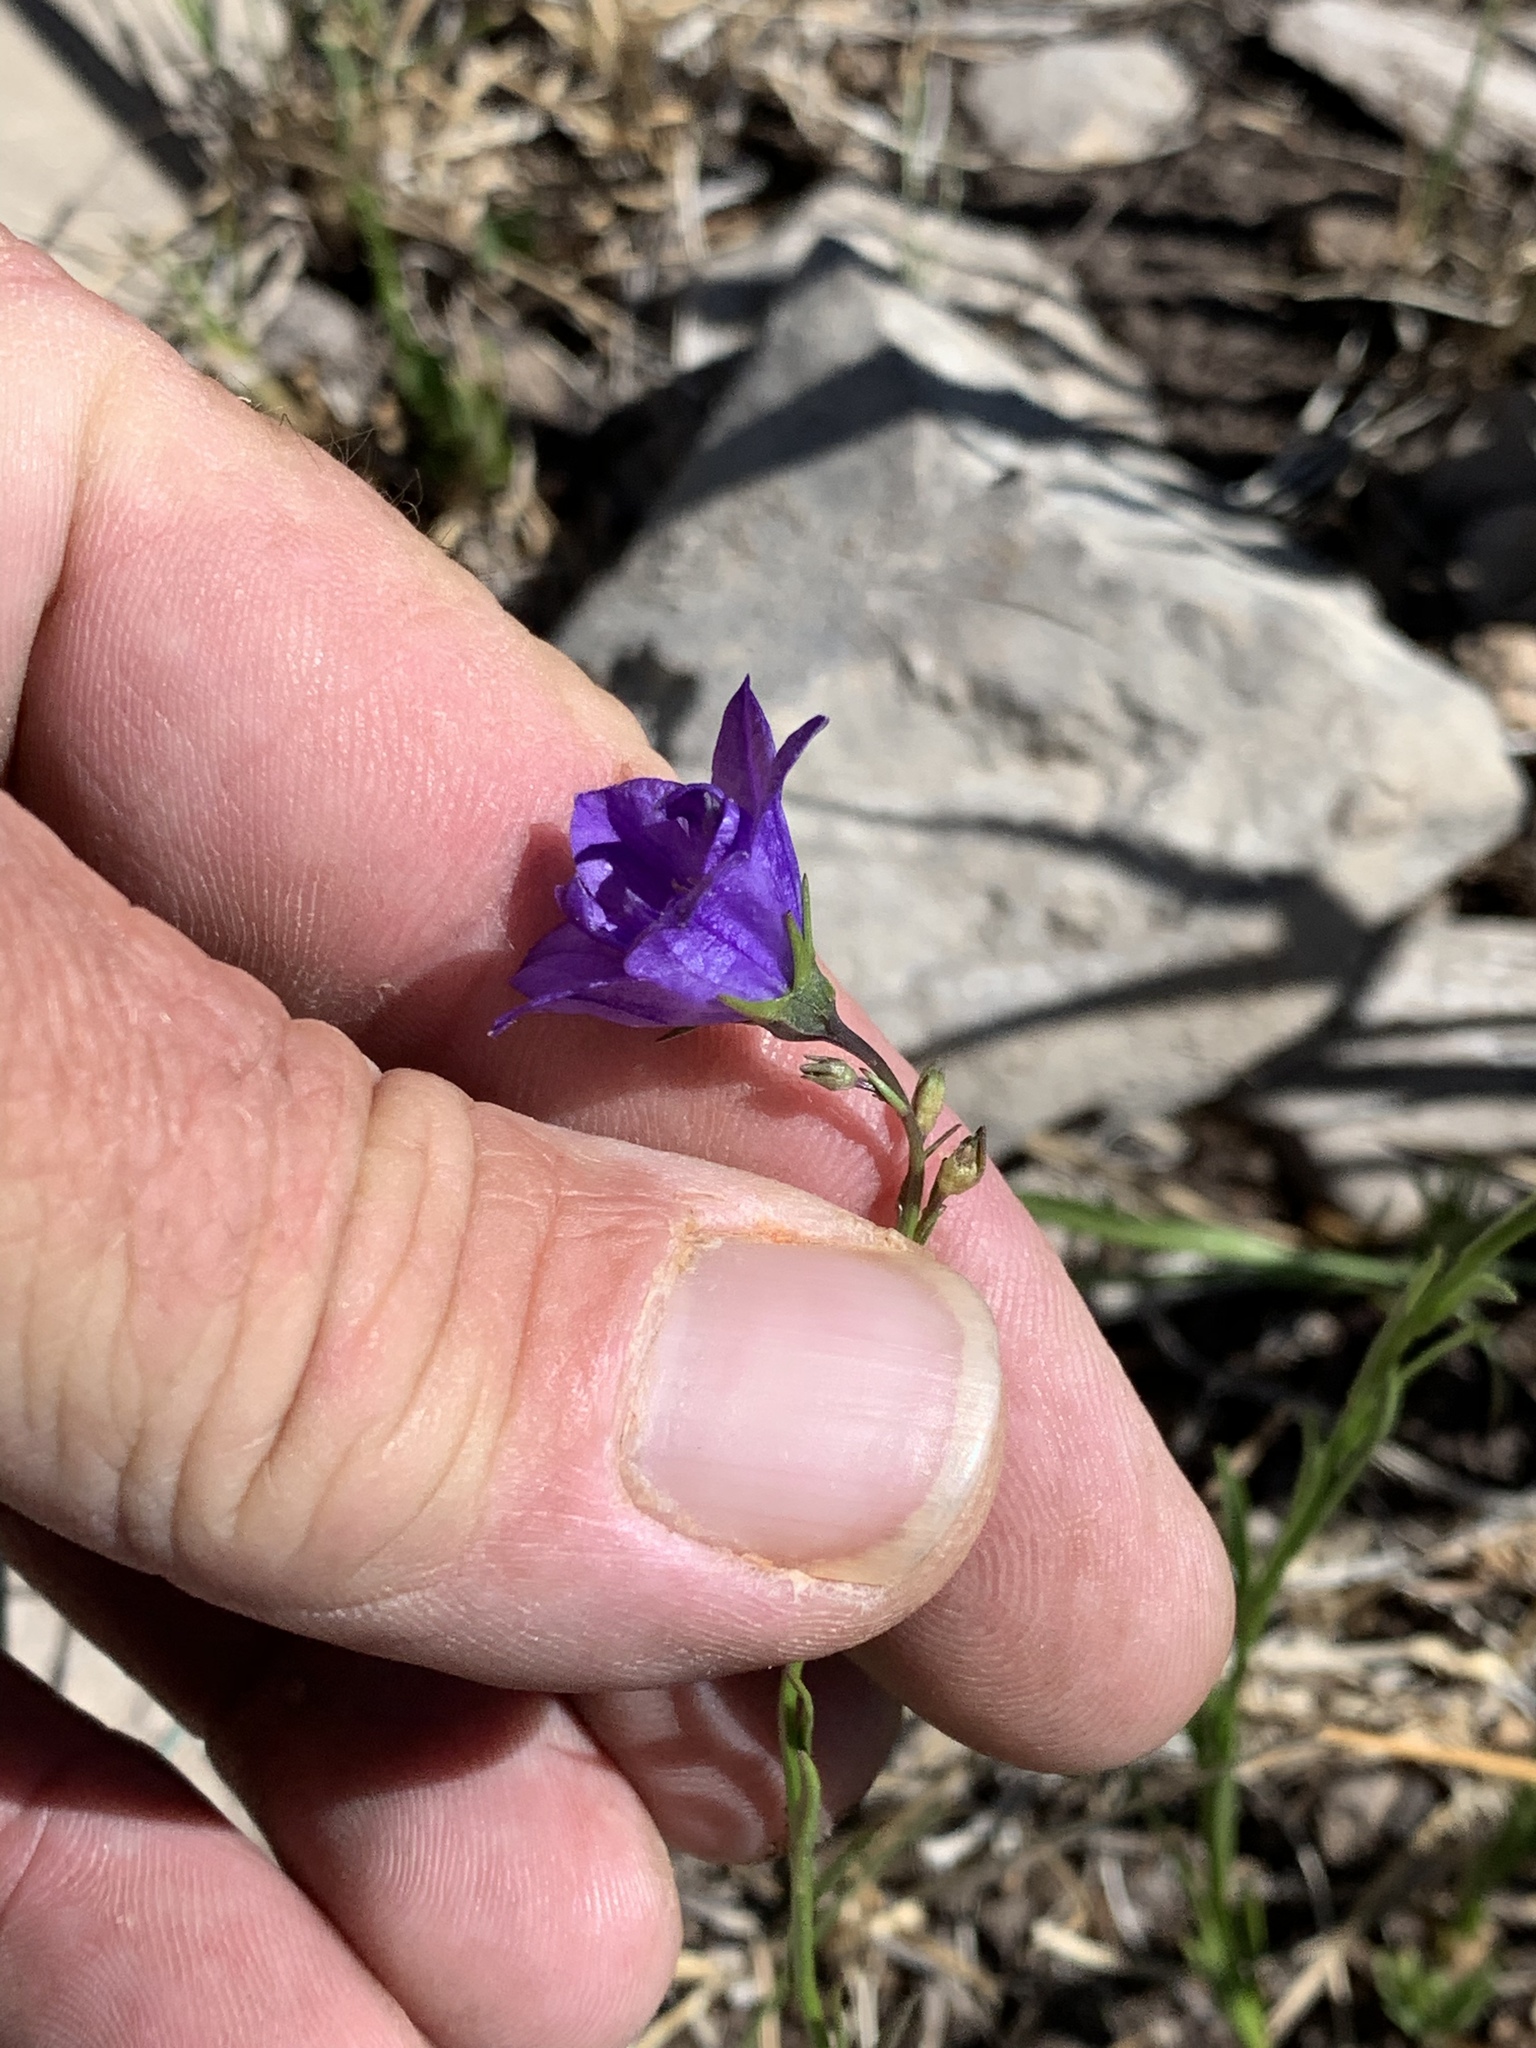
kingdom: Plantae
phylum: Tracheophyta
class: Magnoliopsida
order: Asterales
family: Campanulaceae
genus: Campanula
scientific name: Campanula petiolata
